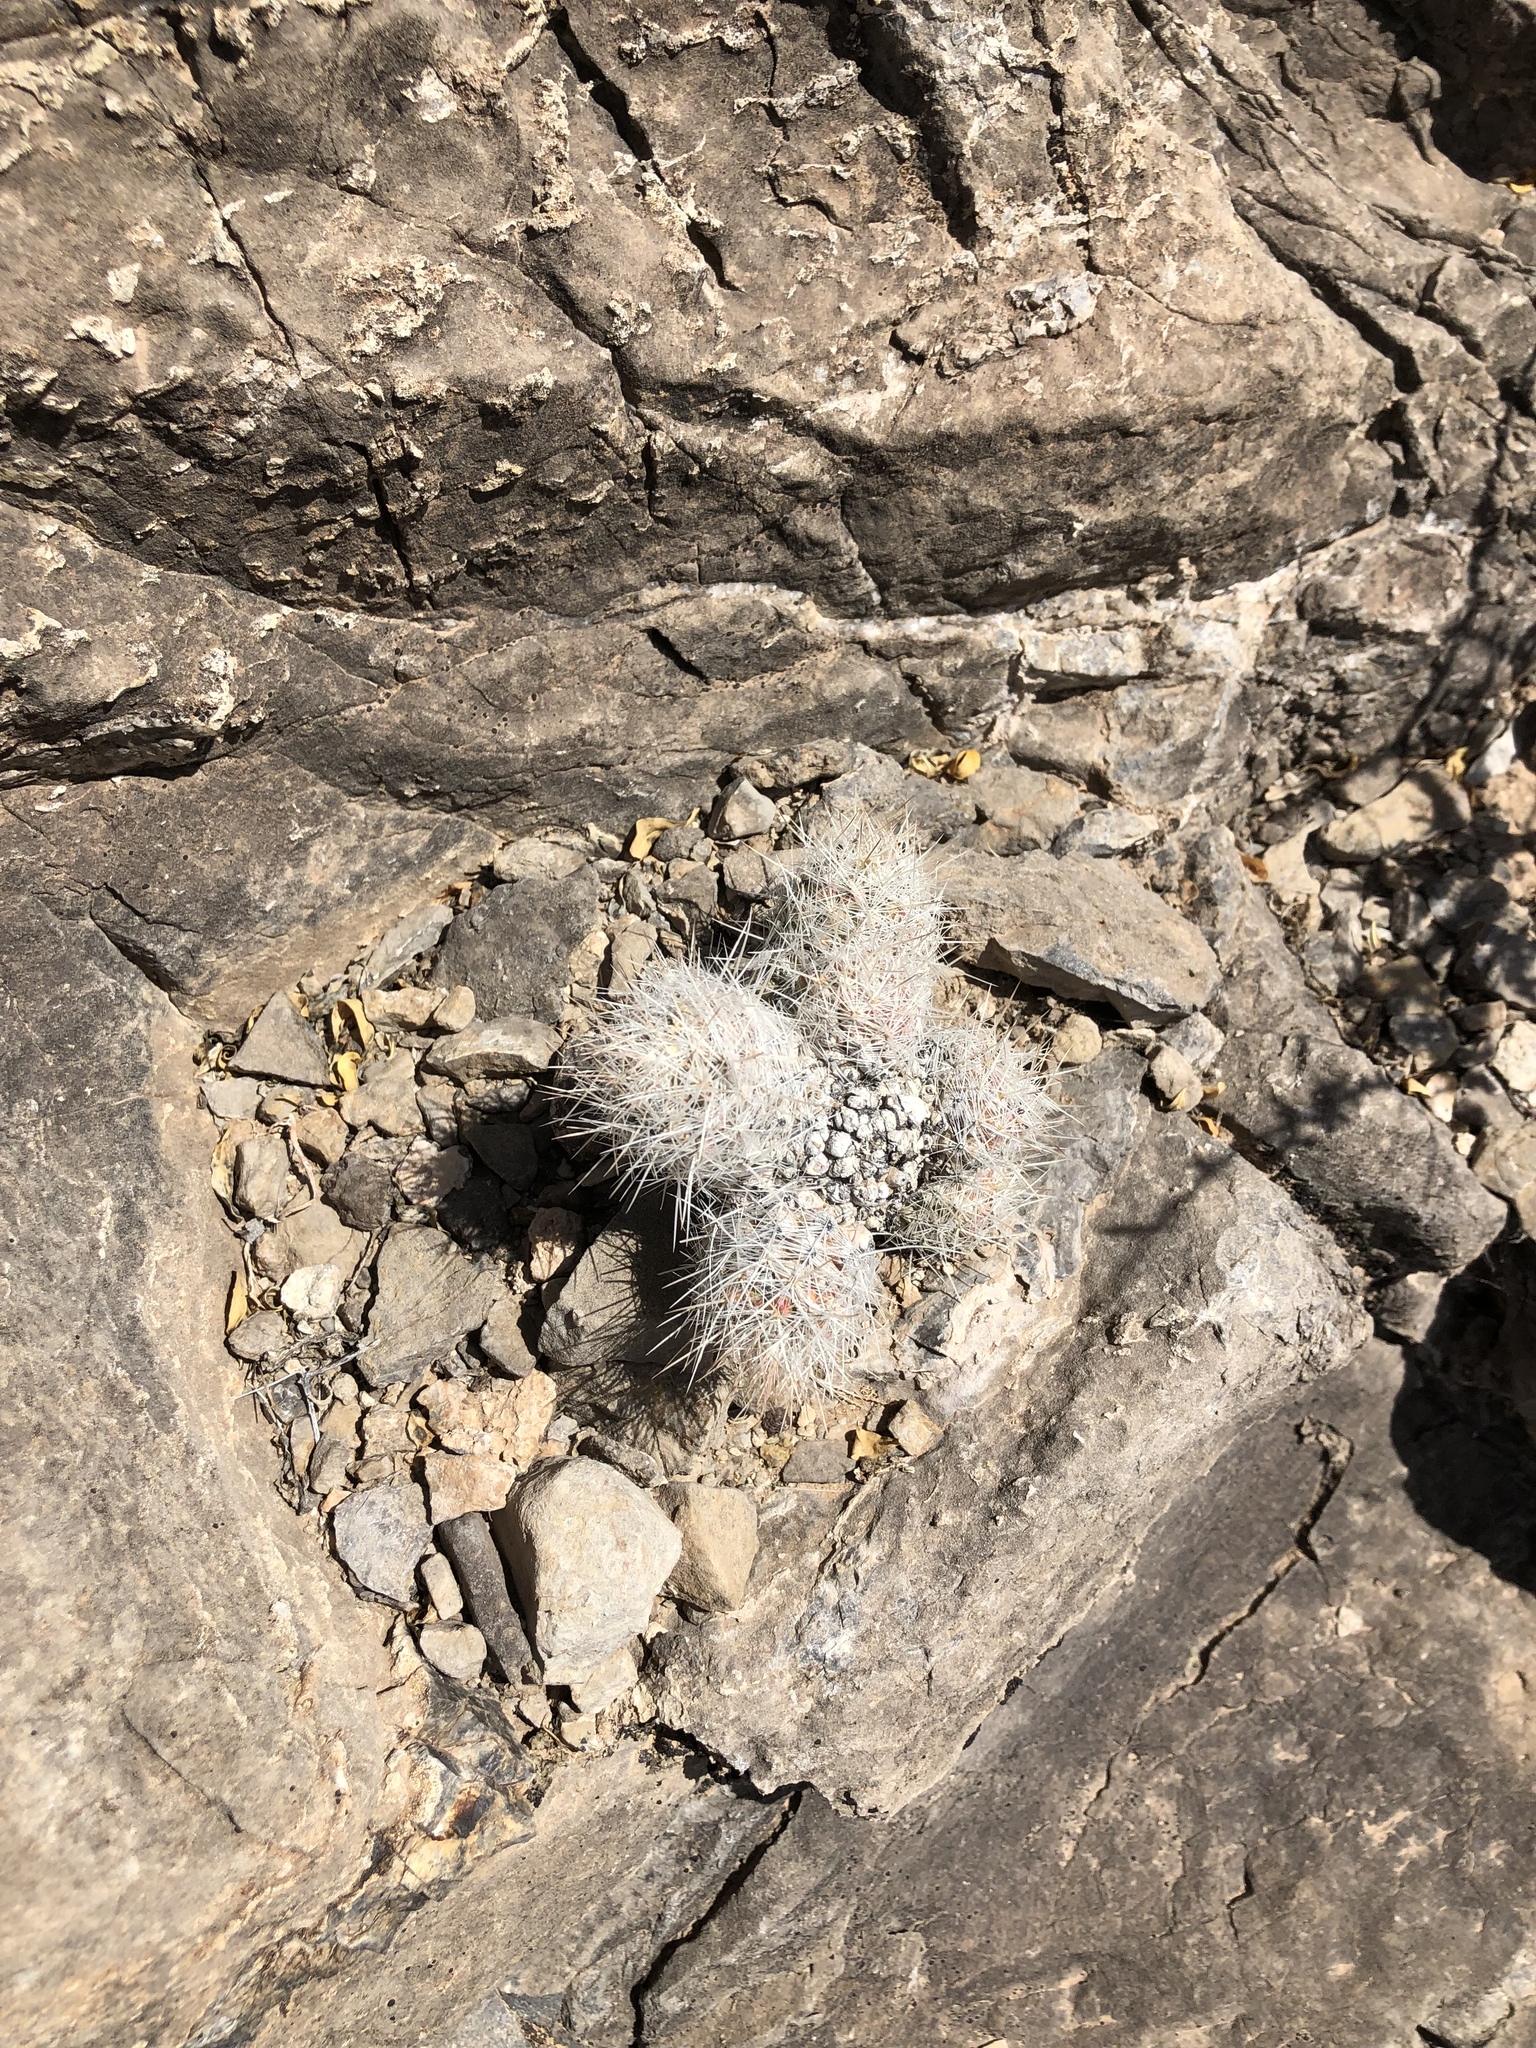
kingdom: Plantae
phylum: Tracheophyta
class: Magnoliopsida
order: Caryophyllales
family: Cactaceae
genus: Pelecyphora
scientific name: Pelecyphora tuberculosa
